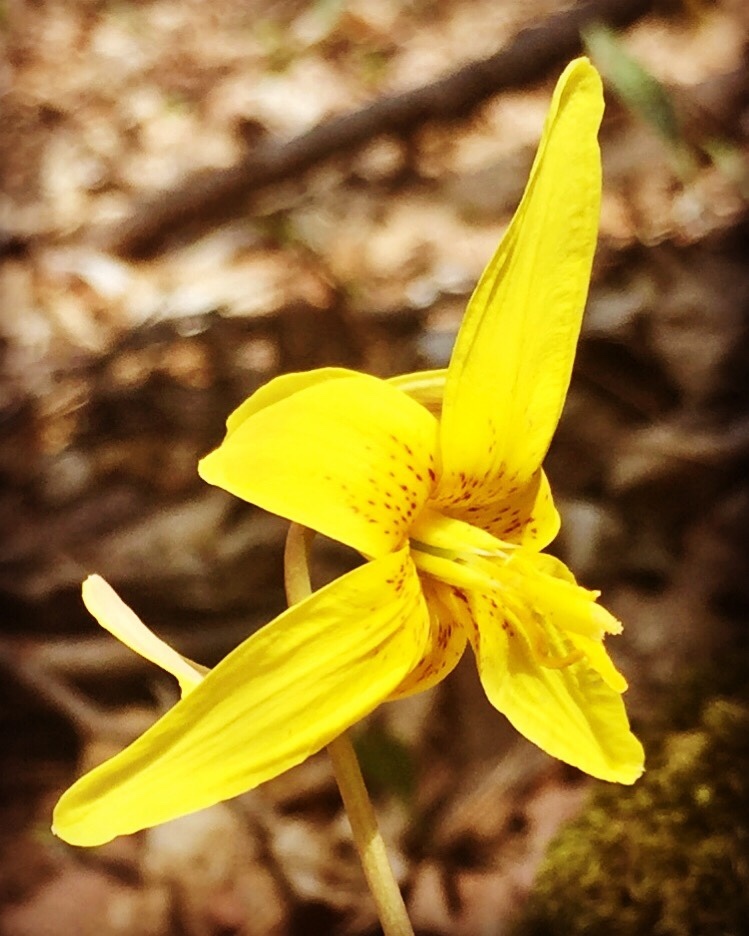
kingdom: Plantae
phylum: Tracheophyta
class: Liliopsida
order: Liliales
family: Liliaceae
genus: Erythronium
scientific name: Erythronium americanum
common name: Yellow adder's-tongue
